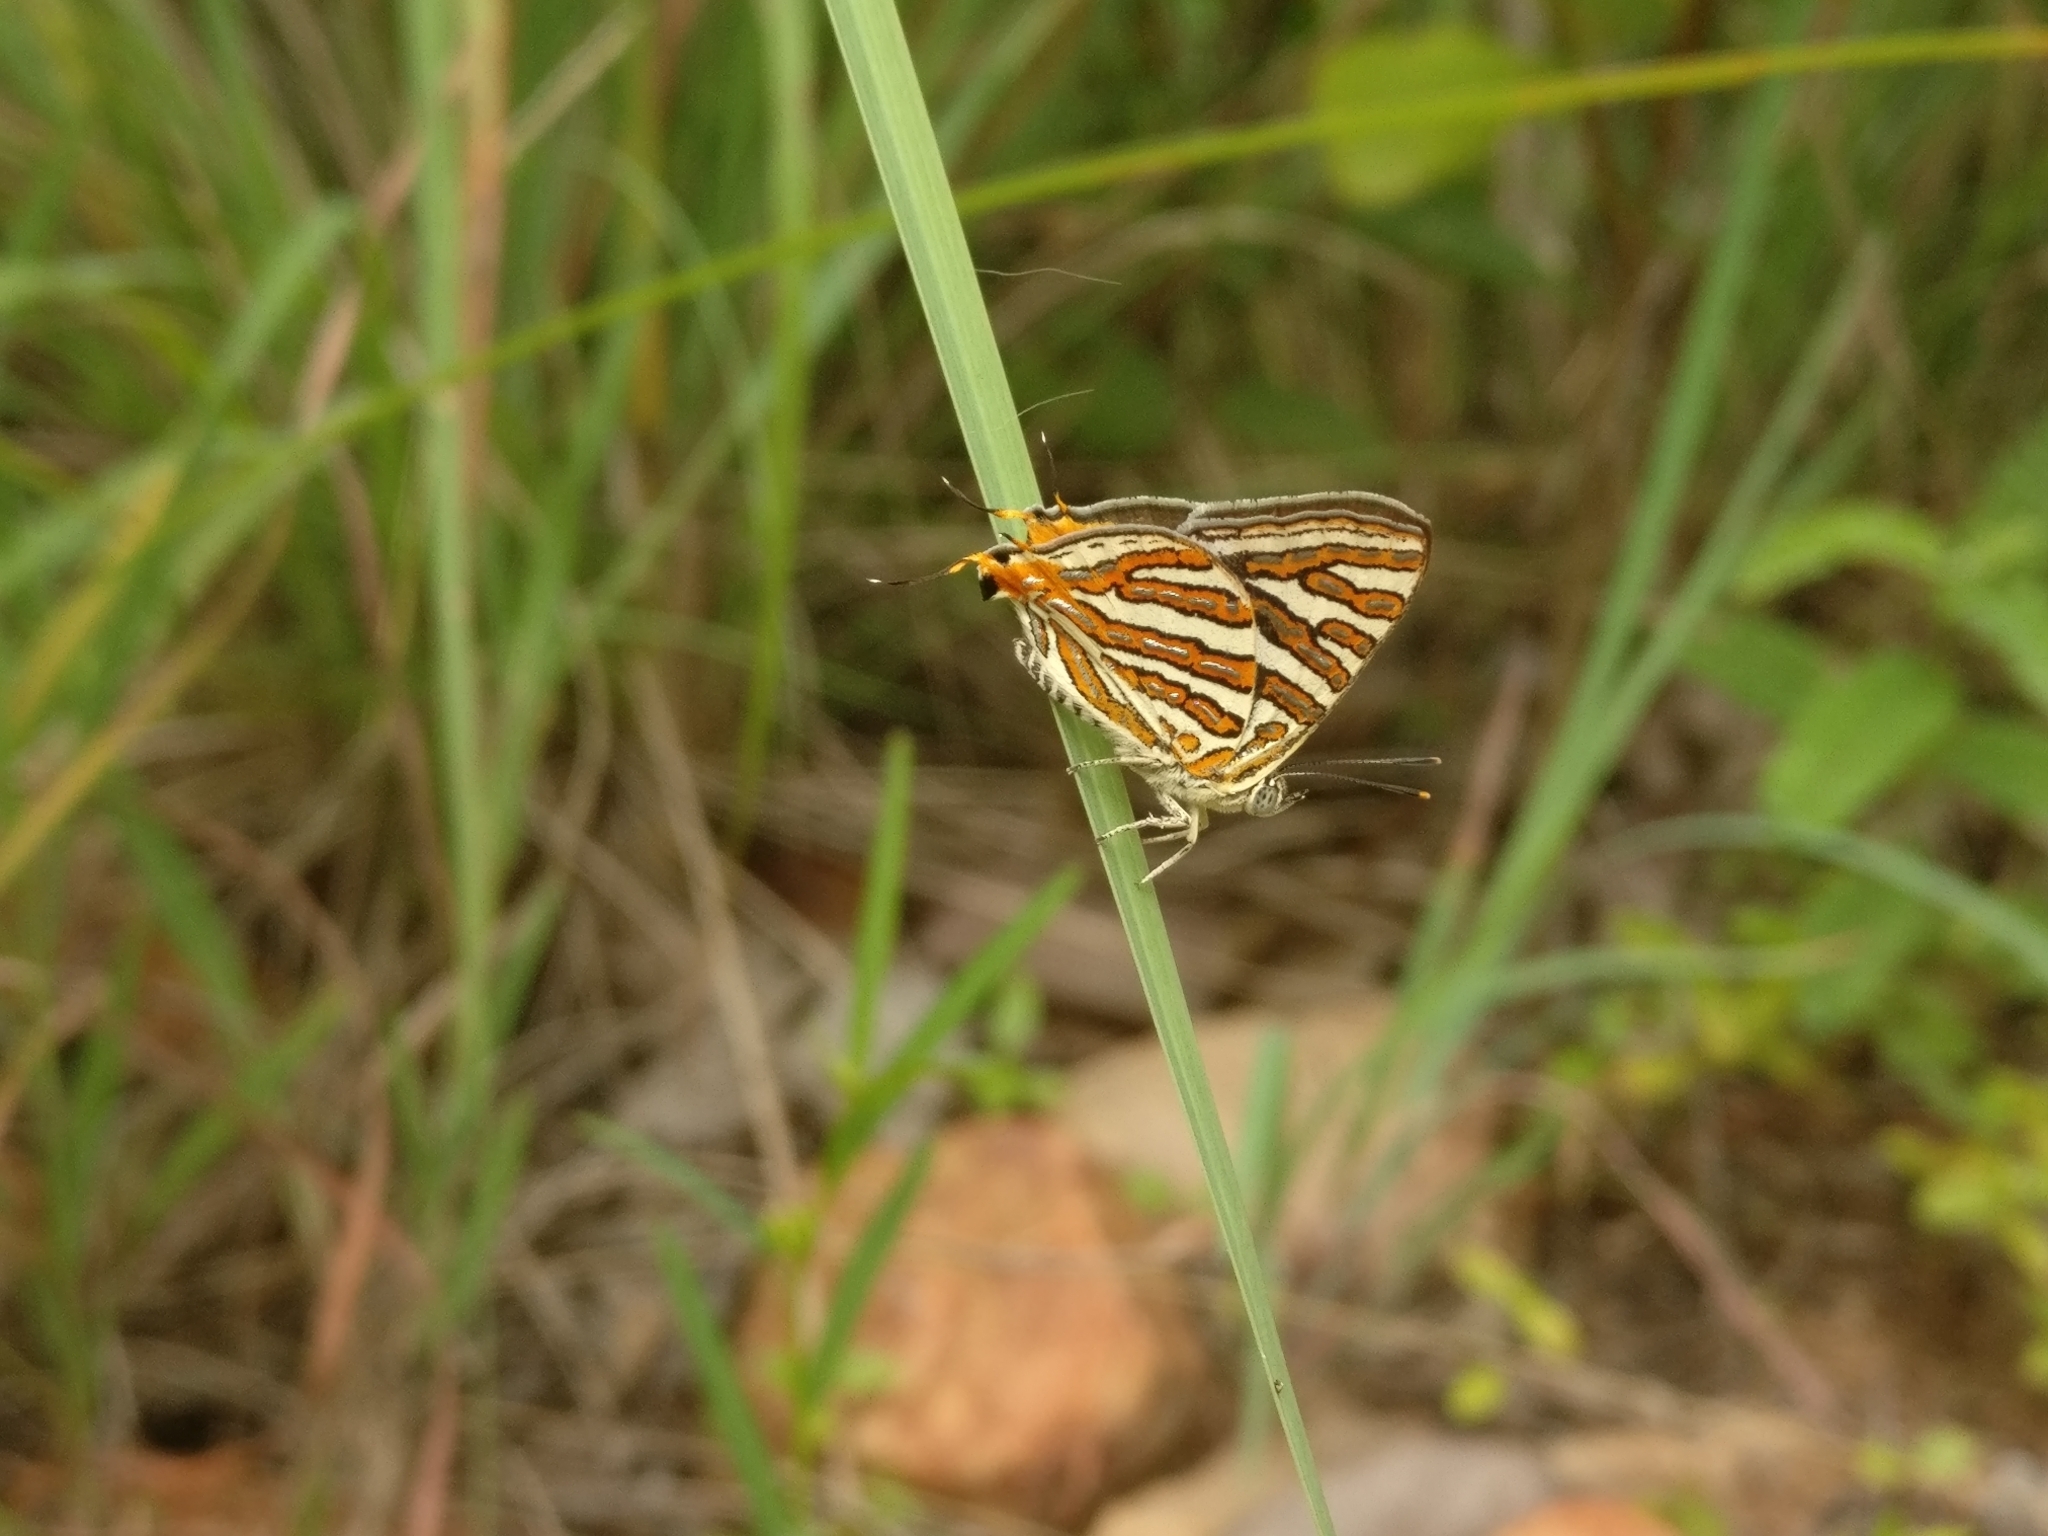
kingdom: Animalia
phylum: Arthropoda
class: Insecta
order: Lepidoptera
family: Lycaenidae
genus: Cigaritis
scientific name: Cigaritis
